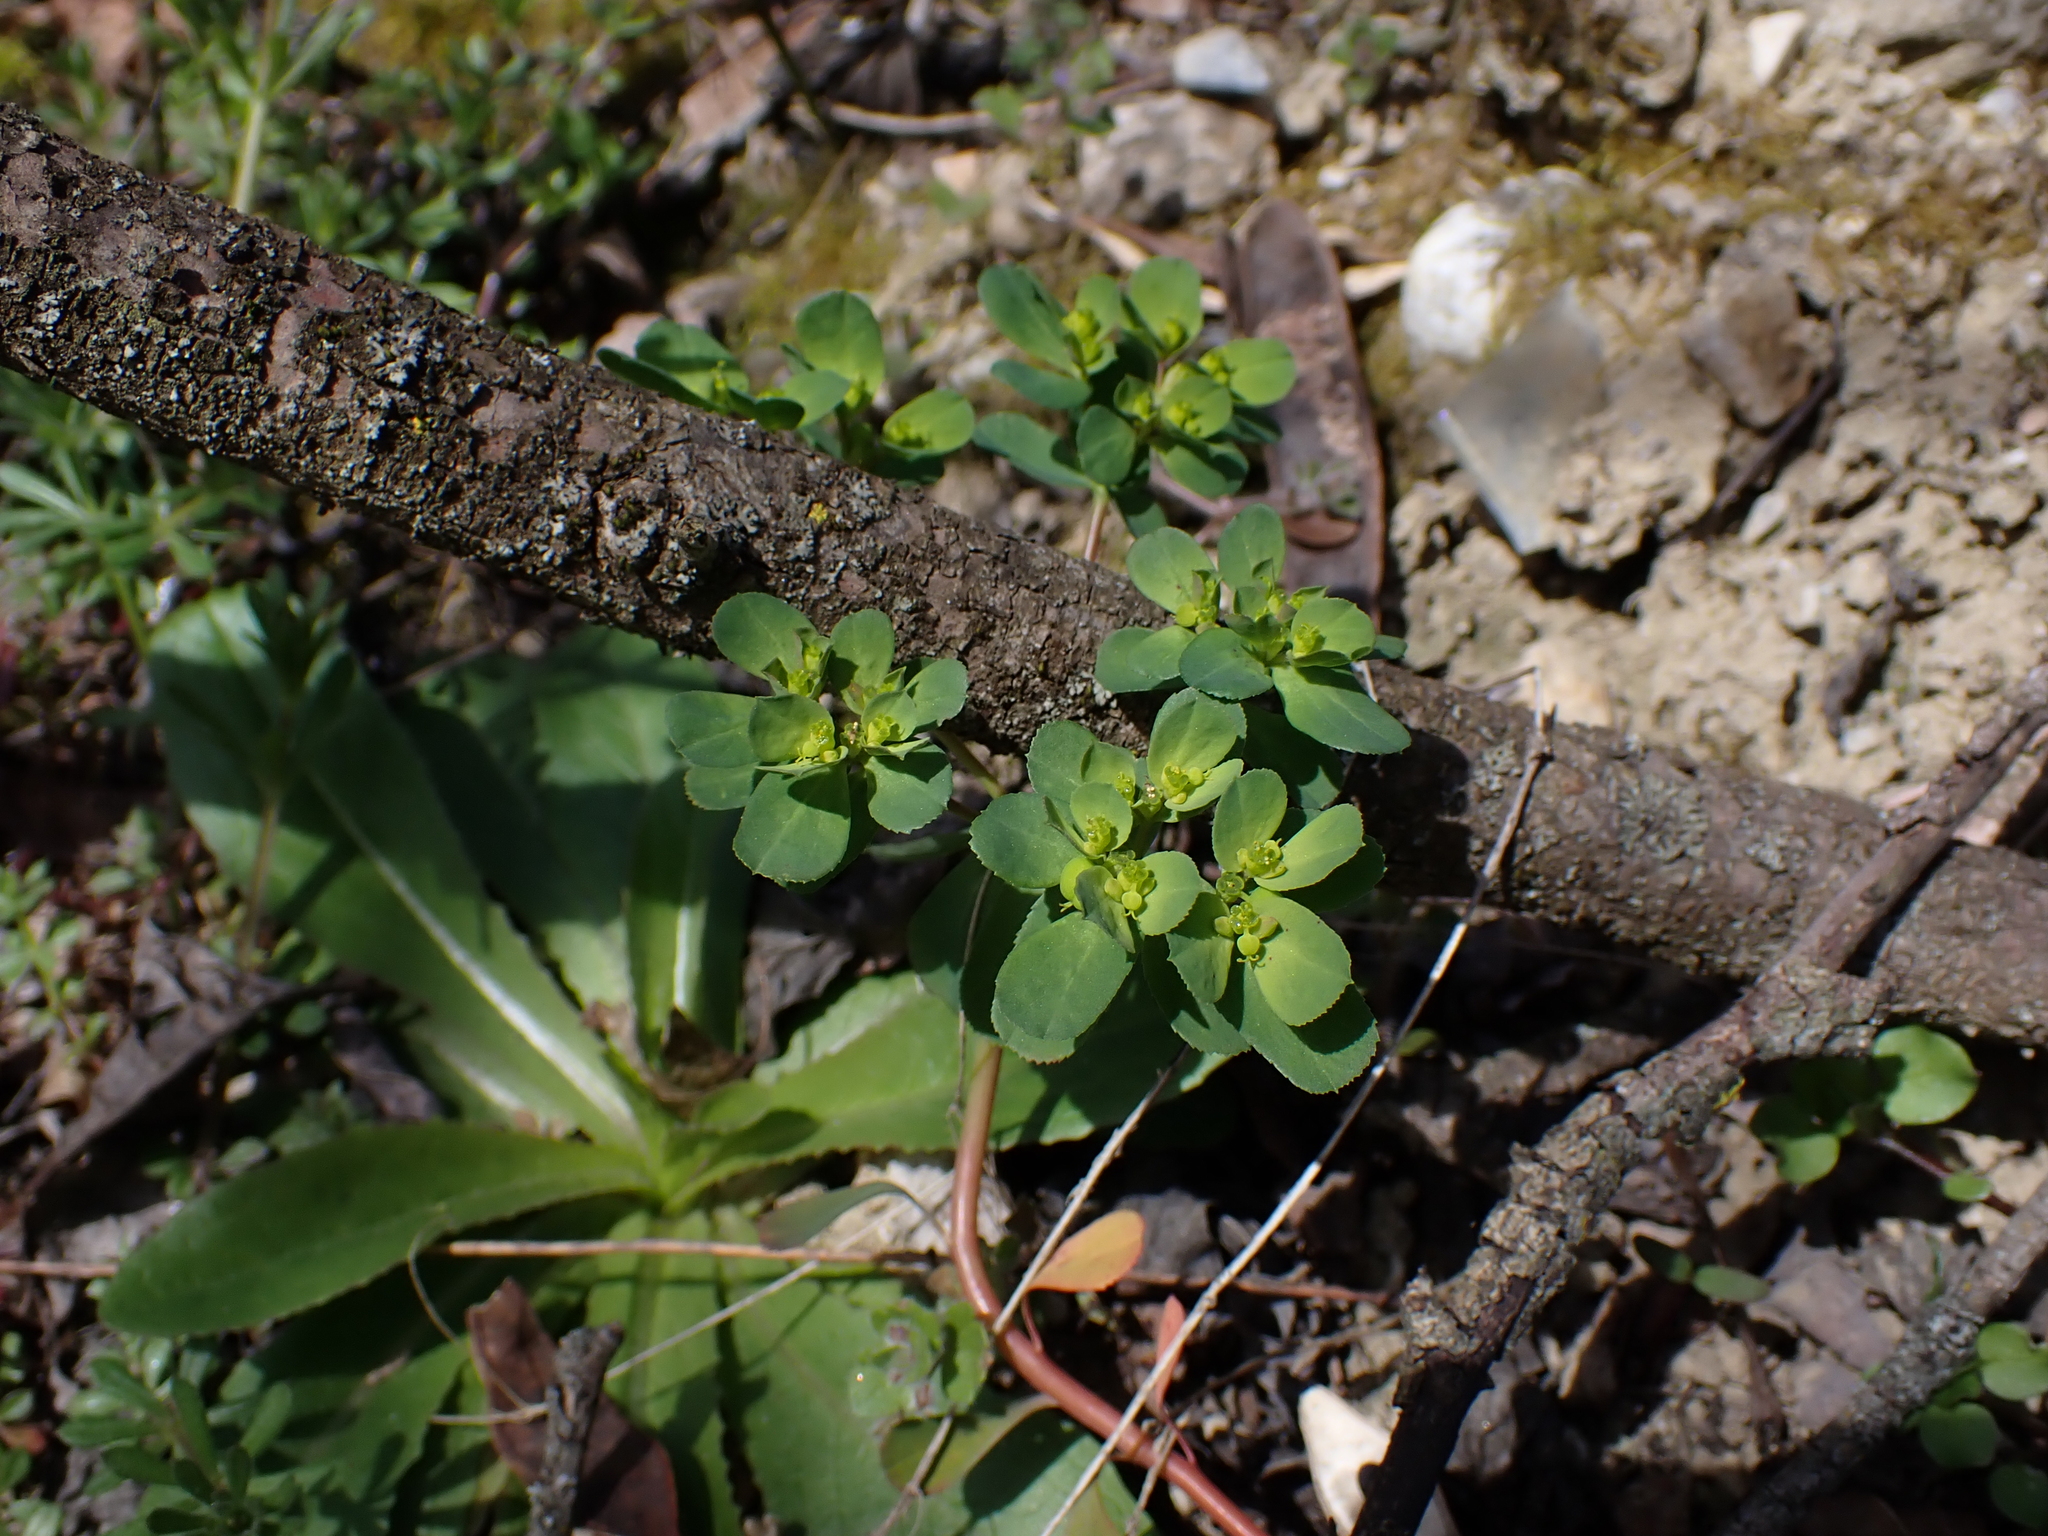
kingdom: Plantae
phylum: Tracheophyta
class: Magnoliopsida
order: Malpighiales
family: Euphorbiaceae
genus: Euphorbia
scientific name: Euphorbia helioscopia
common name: Sun spurge
